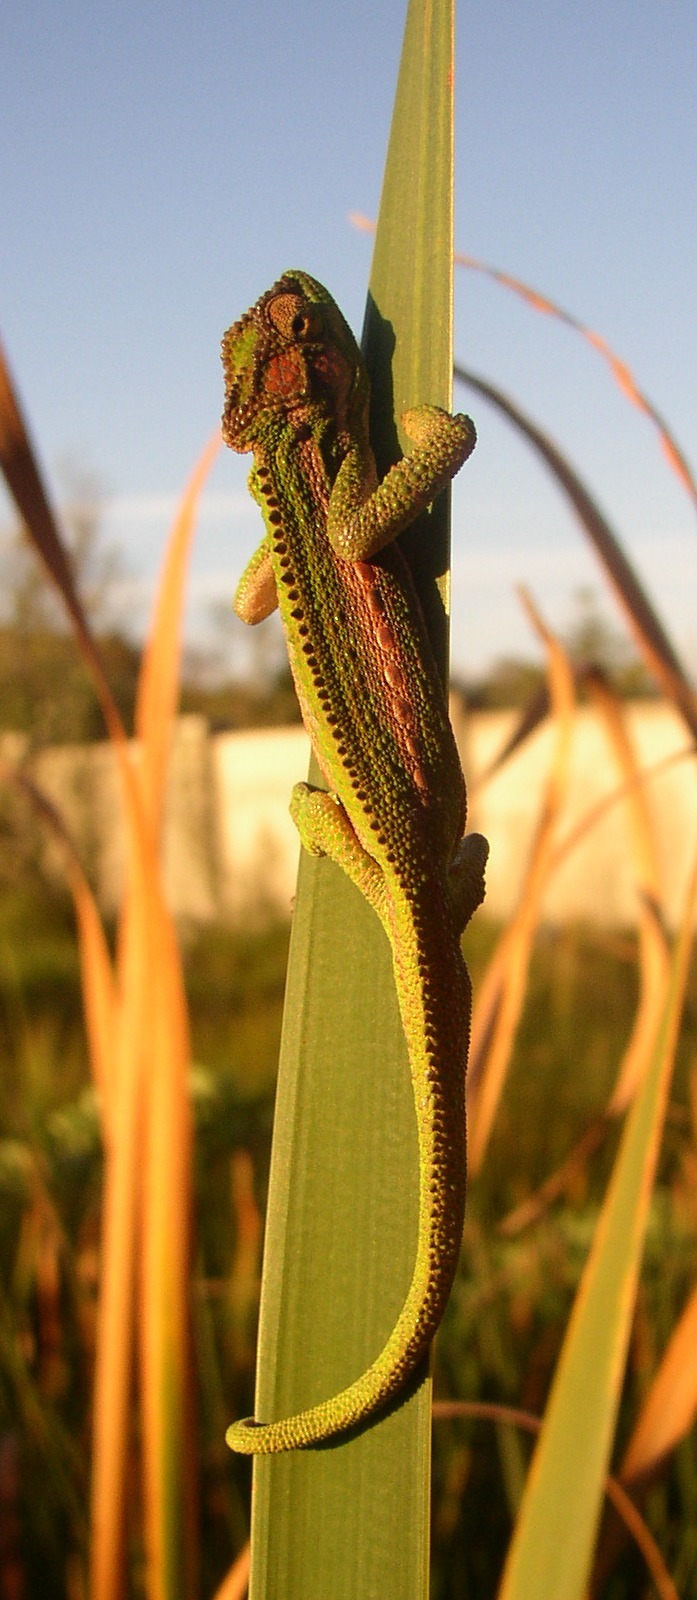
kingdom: Animalia
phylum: Chordata
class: Squamata
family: Chamaeleonidae
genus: Bradypodion
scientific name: Bradypodion pumilum
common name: Cape dwarf chameleon
